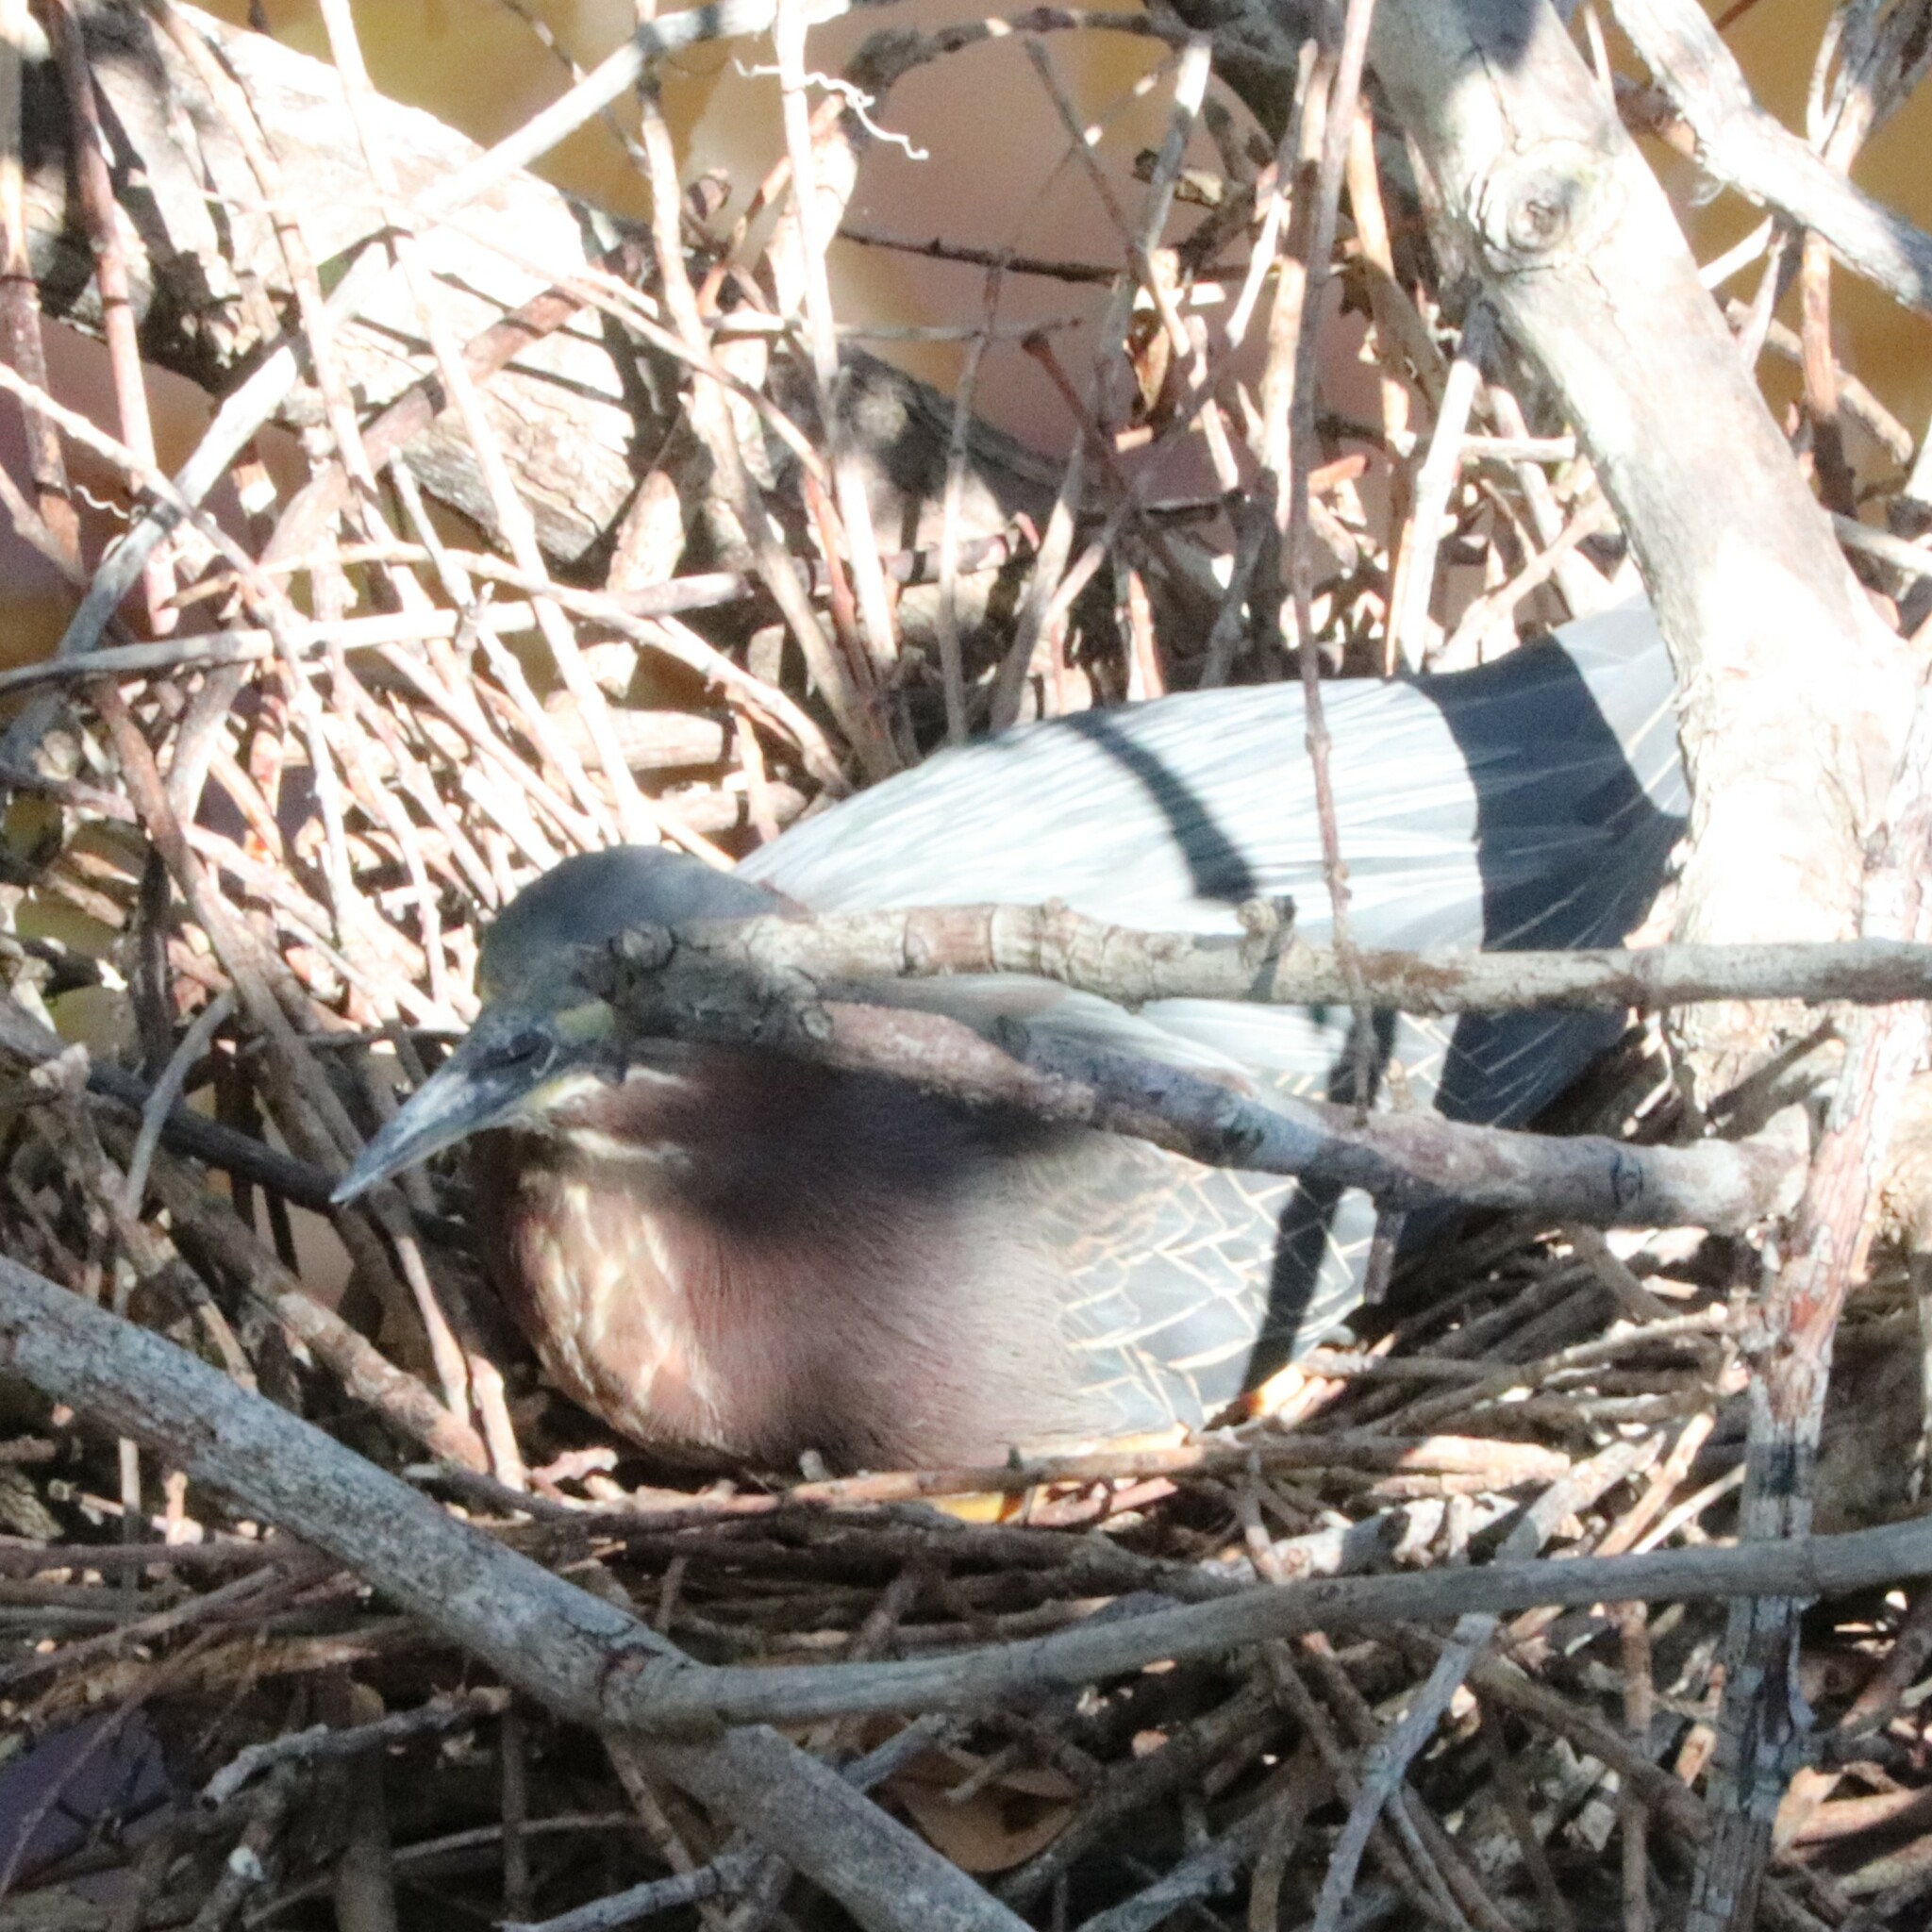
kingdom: Animalia
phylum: Chordata
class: Aves
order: Pelecaniformes
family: Ardeidae
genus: Butorides
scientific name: Butorides virescens
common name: Green heron
